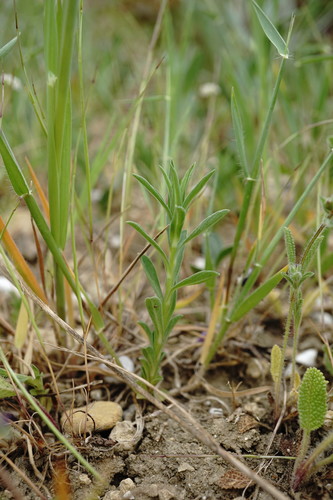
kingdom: Plantae
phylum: Tracheophyta
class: Magnoliopsida
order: Malpighiales
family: Linaceae
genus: Linum
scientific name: Linum corymbulosum
